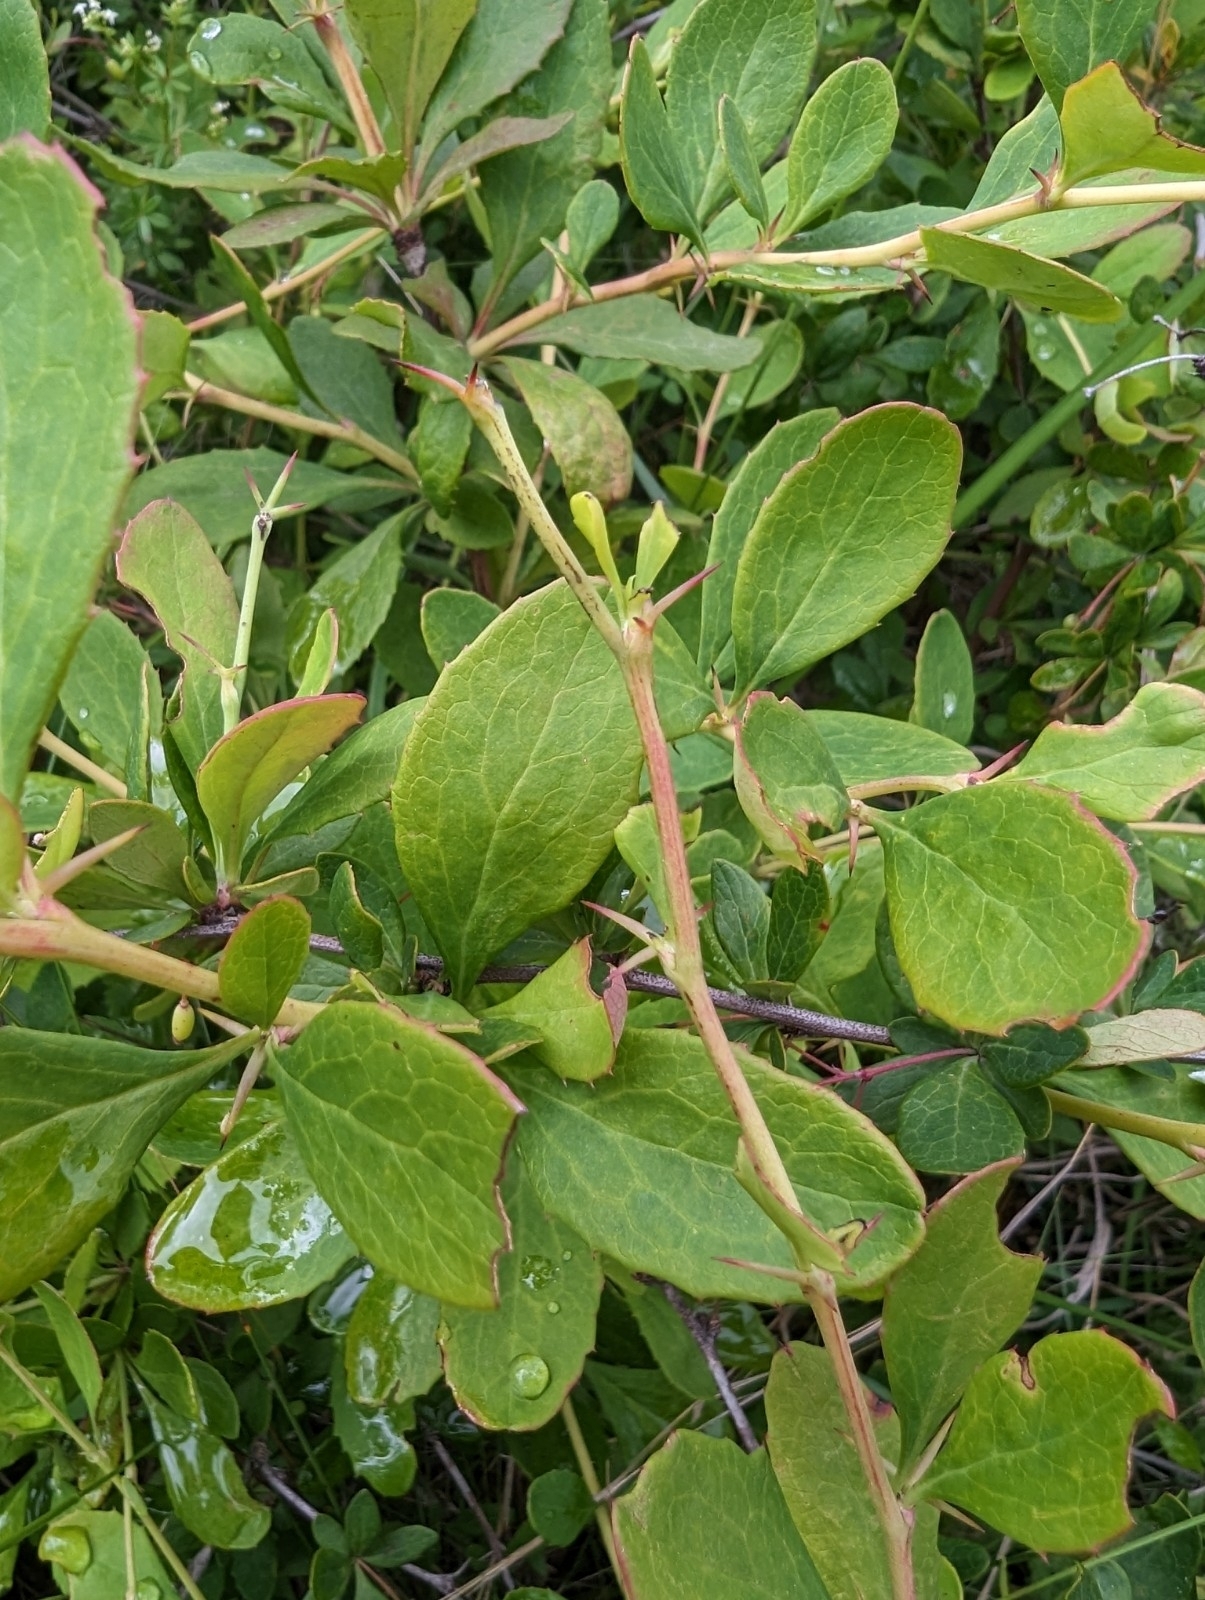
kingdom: Plantae
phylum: Tracheophyta
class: Magnoliopsida
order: Ranunculales
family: Berberidaceae
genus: Berberis
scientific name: Berberis canadensis
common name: American barberry
